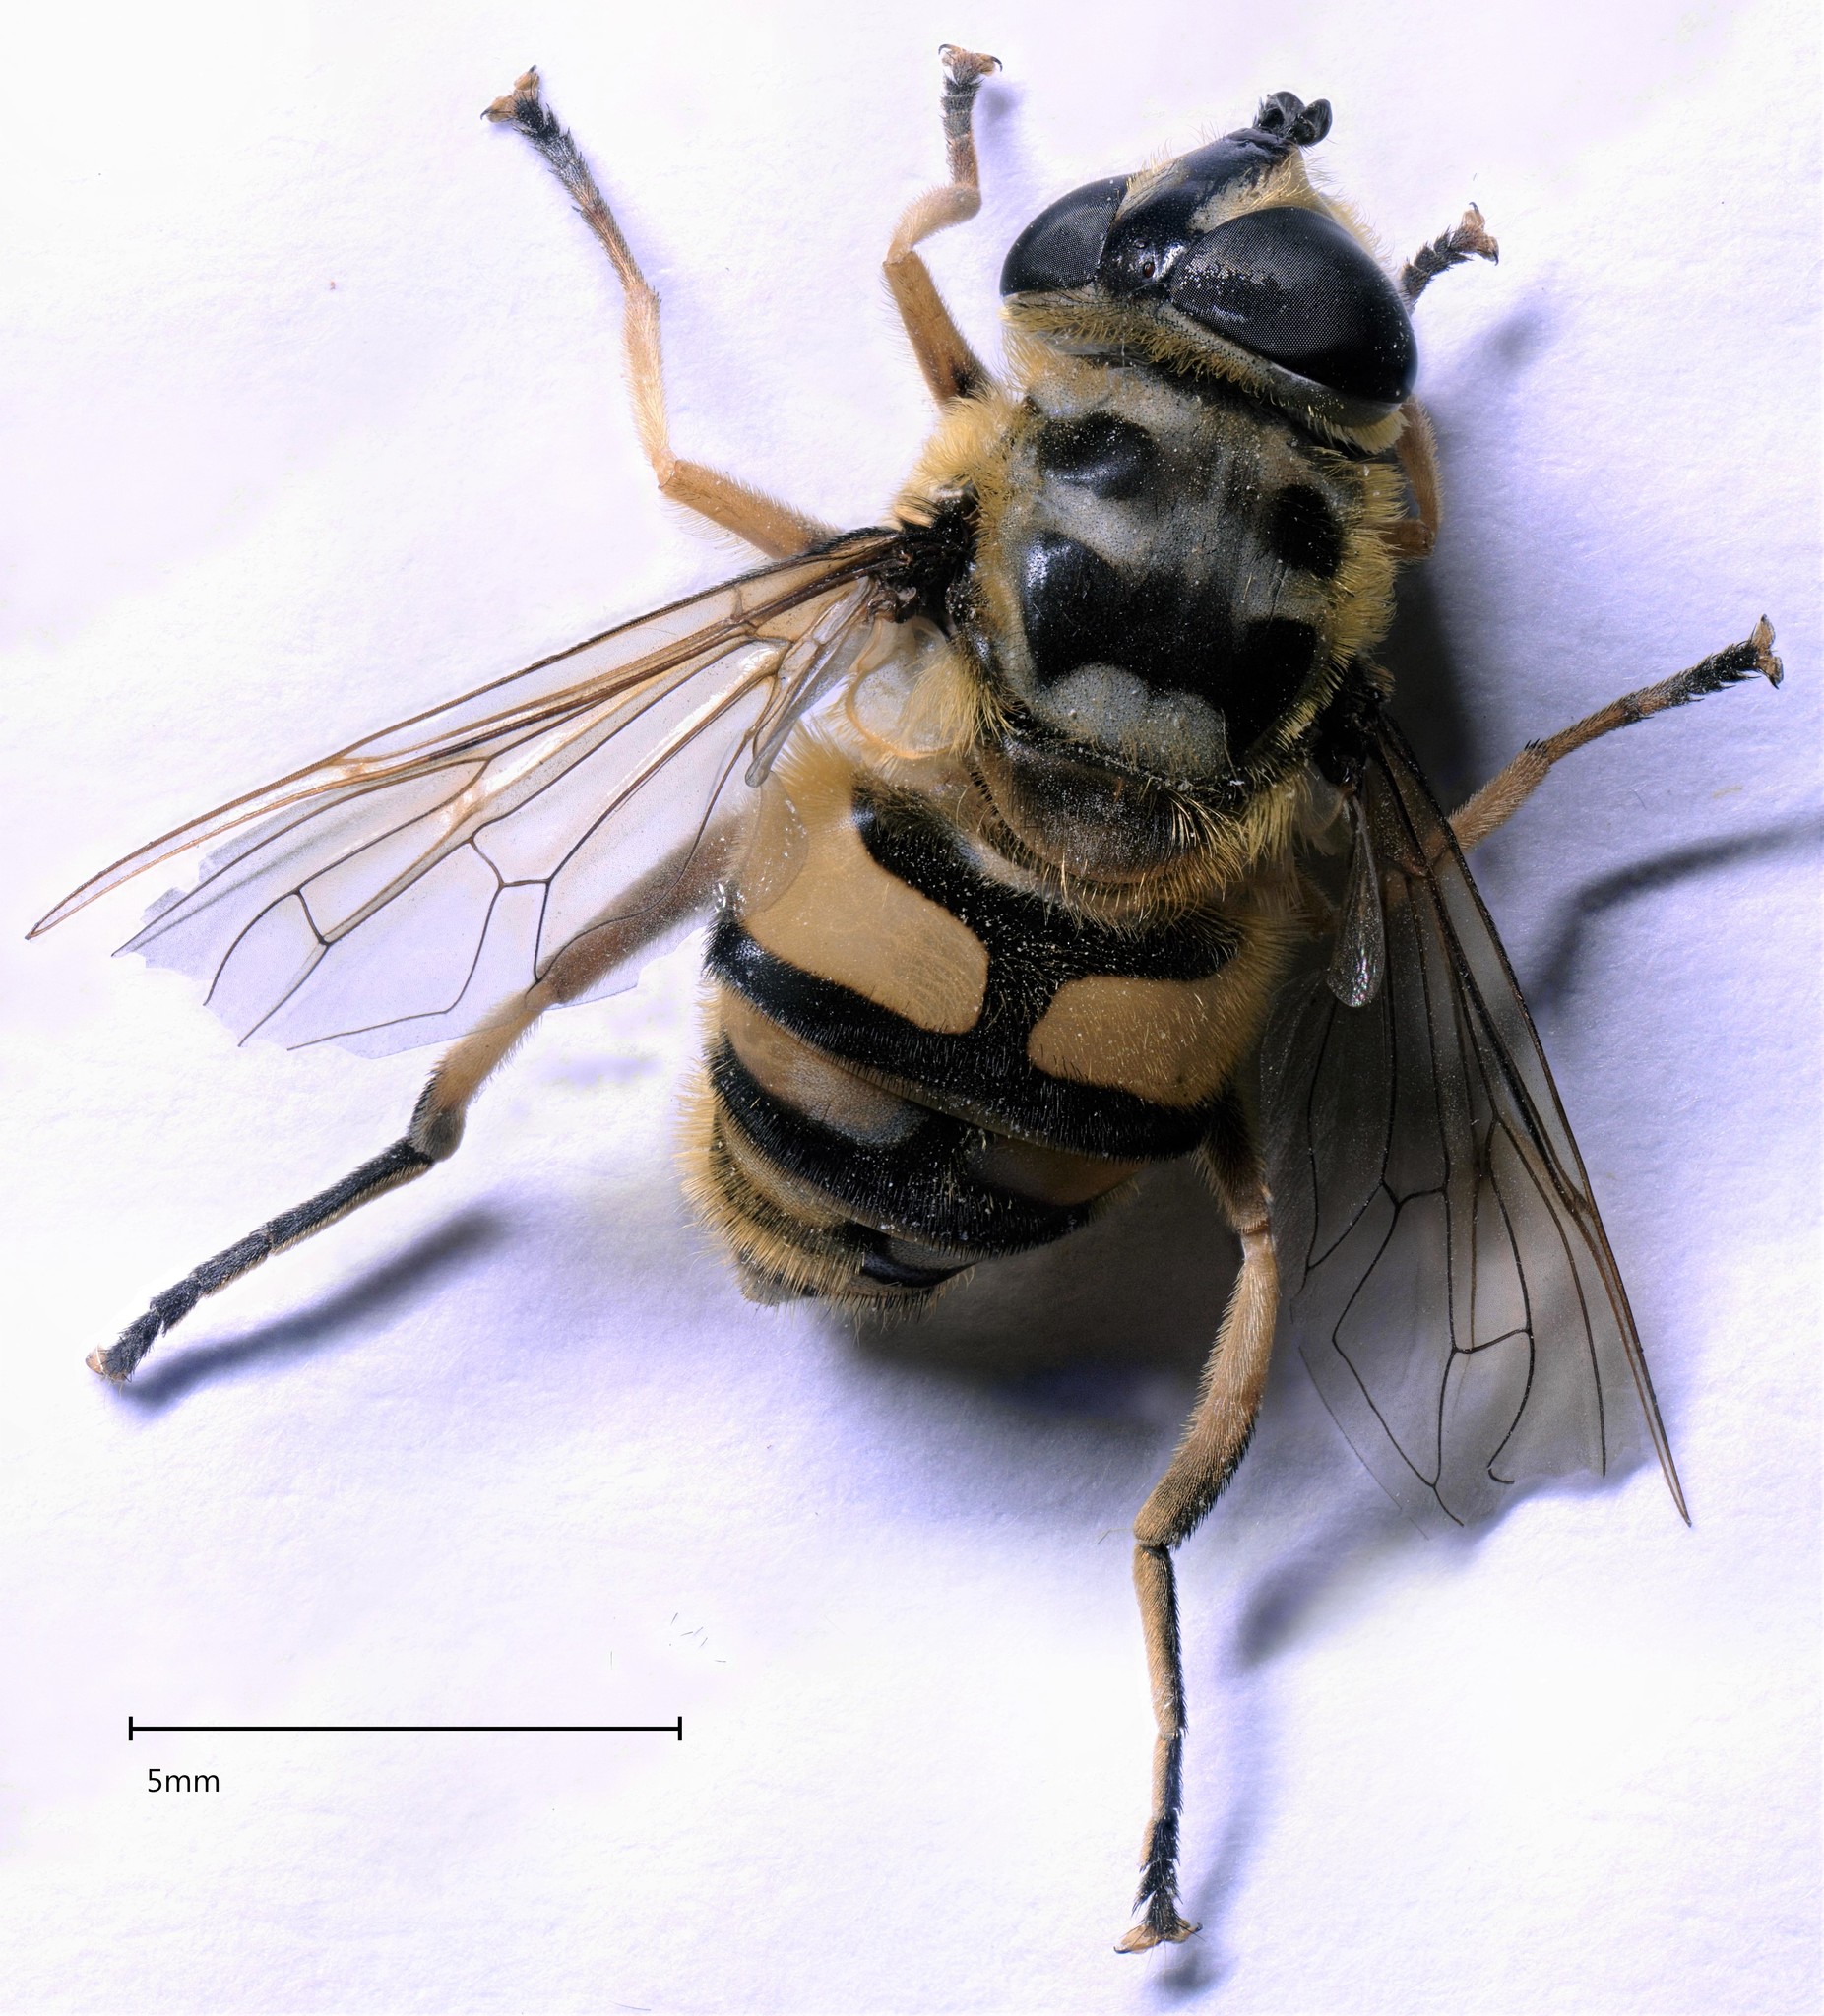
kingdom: Animalia
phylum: Arthropoda
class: Insecta
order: Diptera
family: Syrphidae
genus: Myathropa
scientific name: Myathropa florea
